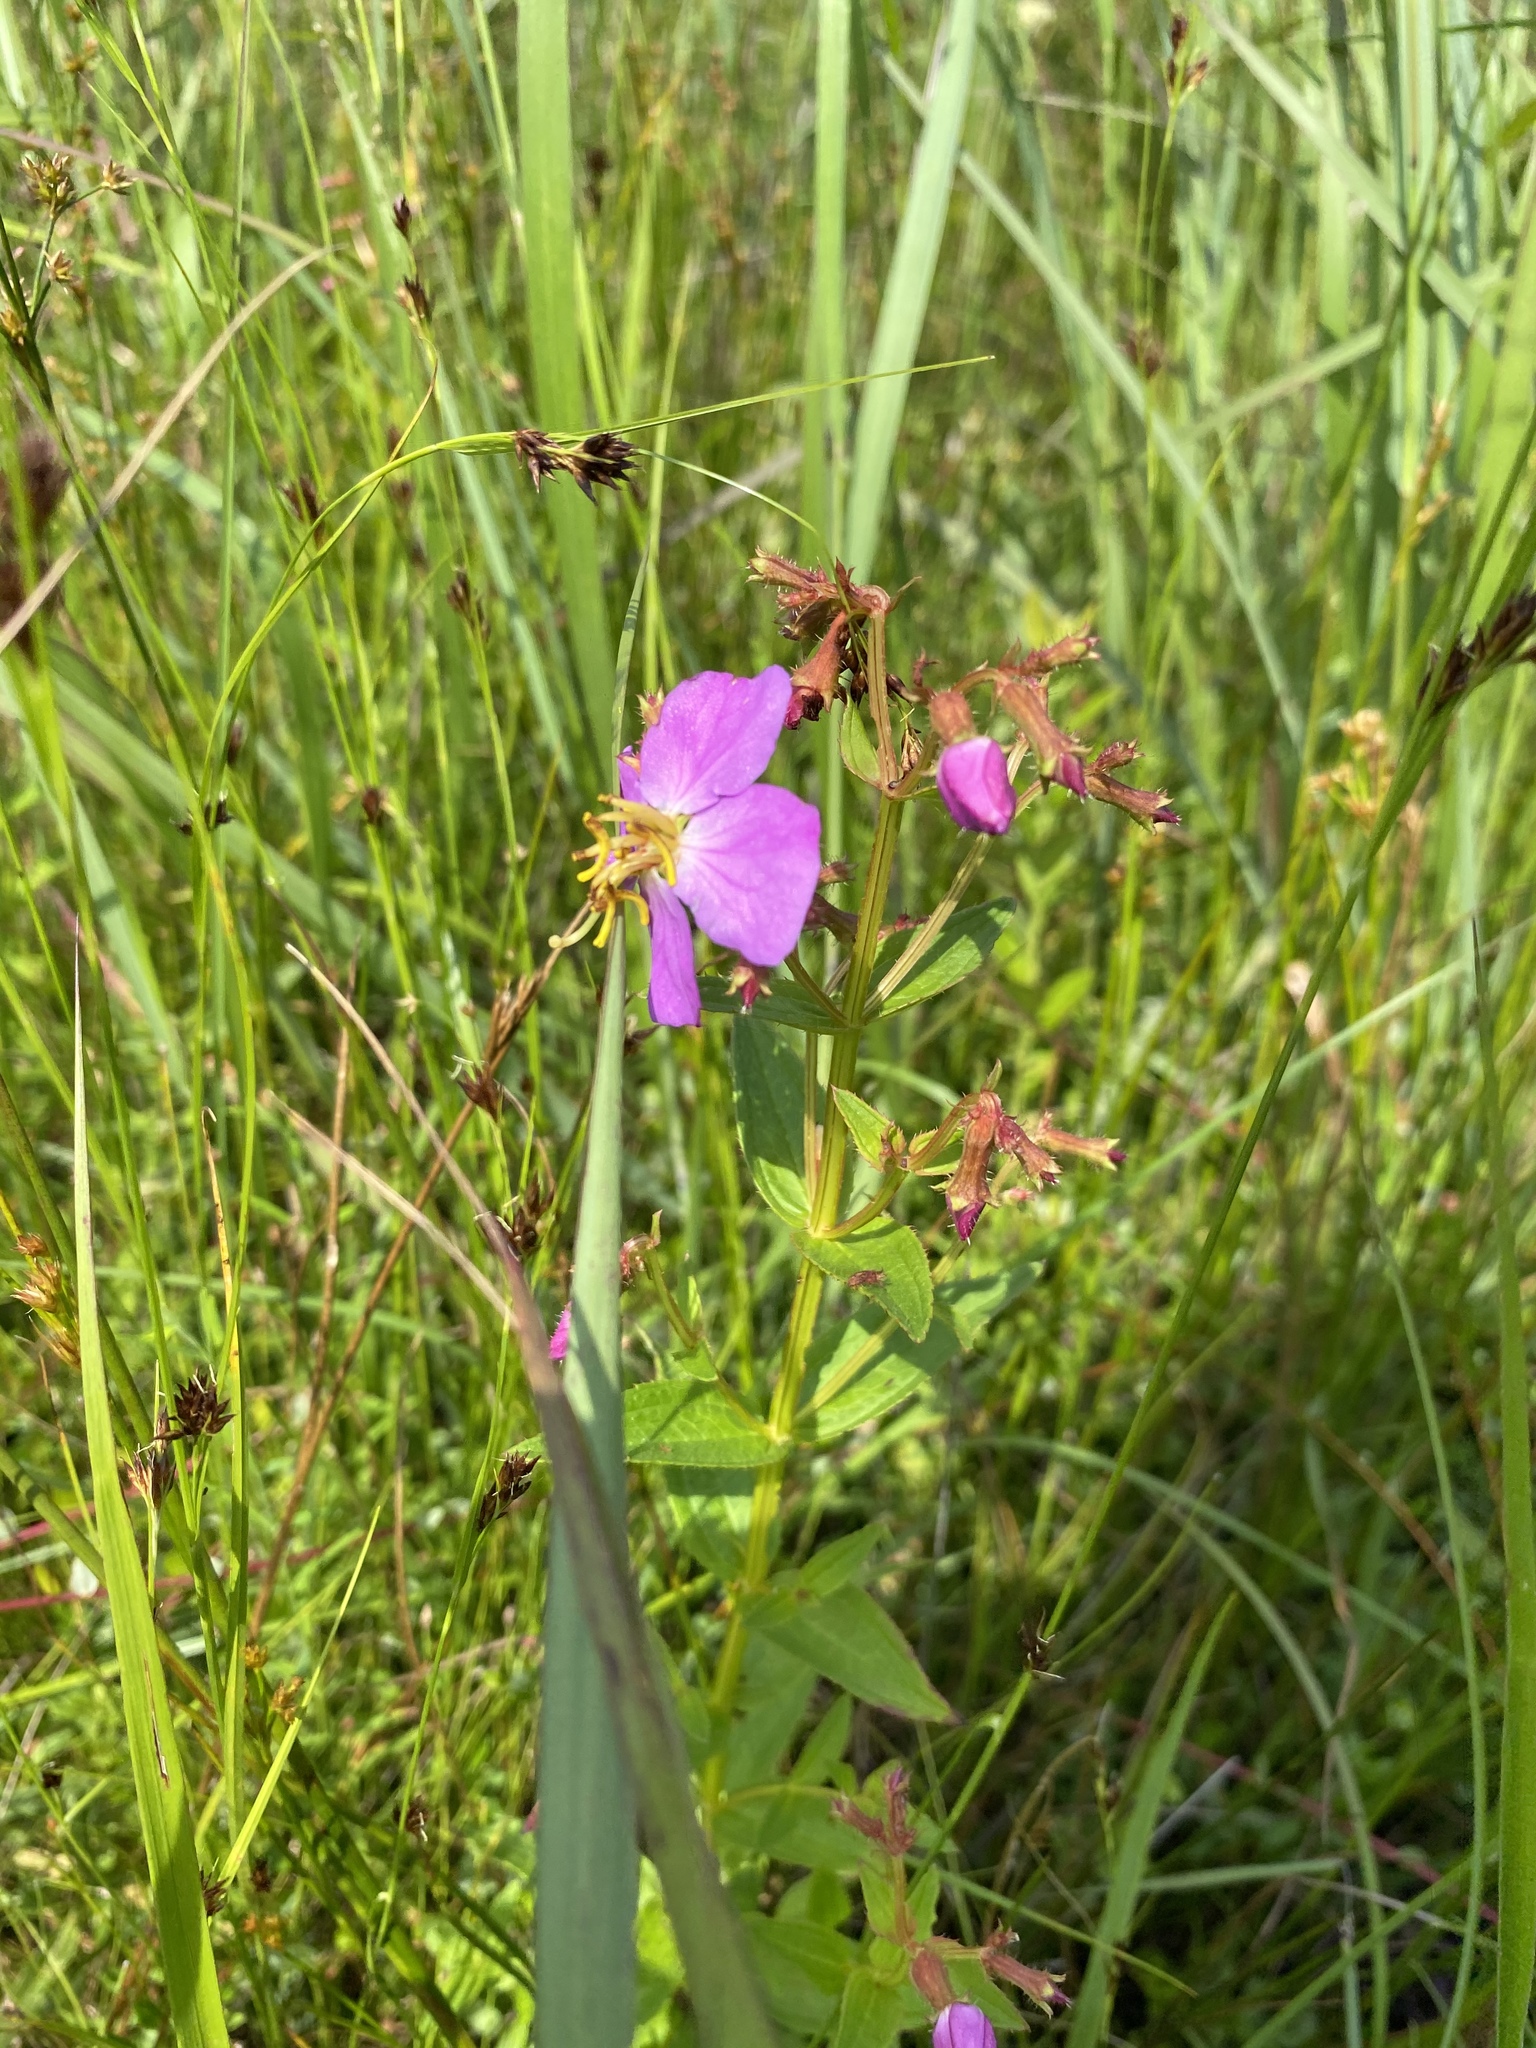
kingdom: Plantae
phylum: Tracheophyta
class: Magnoliopsida
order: Myrtales
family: Melastomataceae
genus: Rhexia
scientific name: Rhexia virginica
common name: Common meadow beauty
